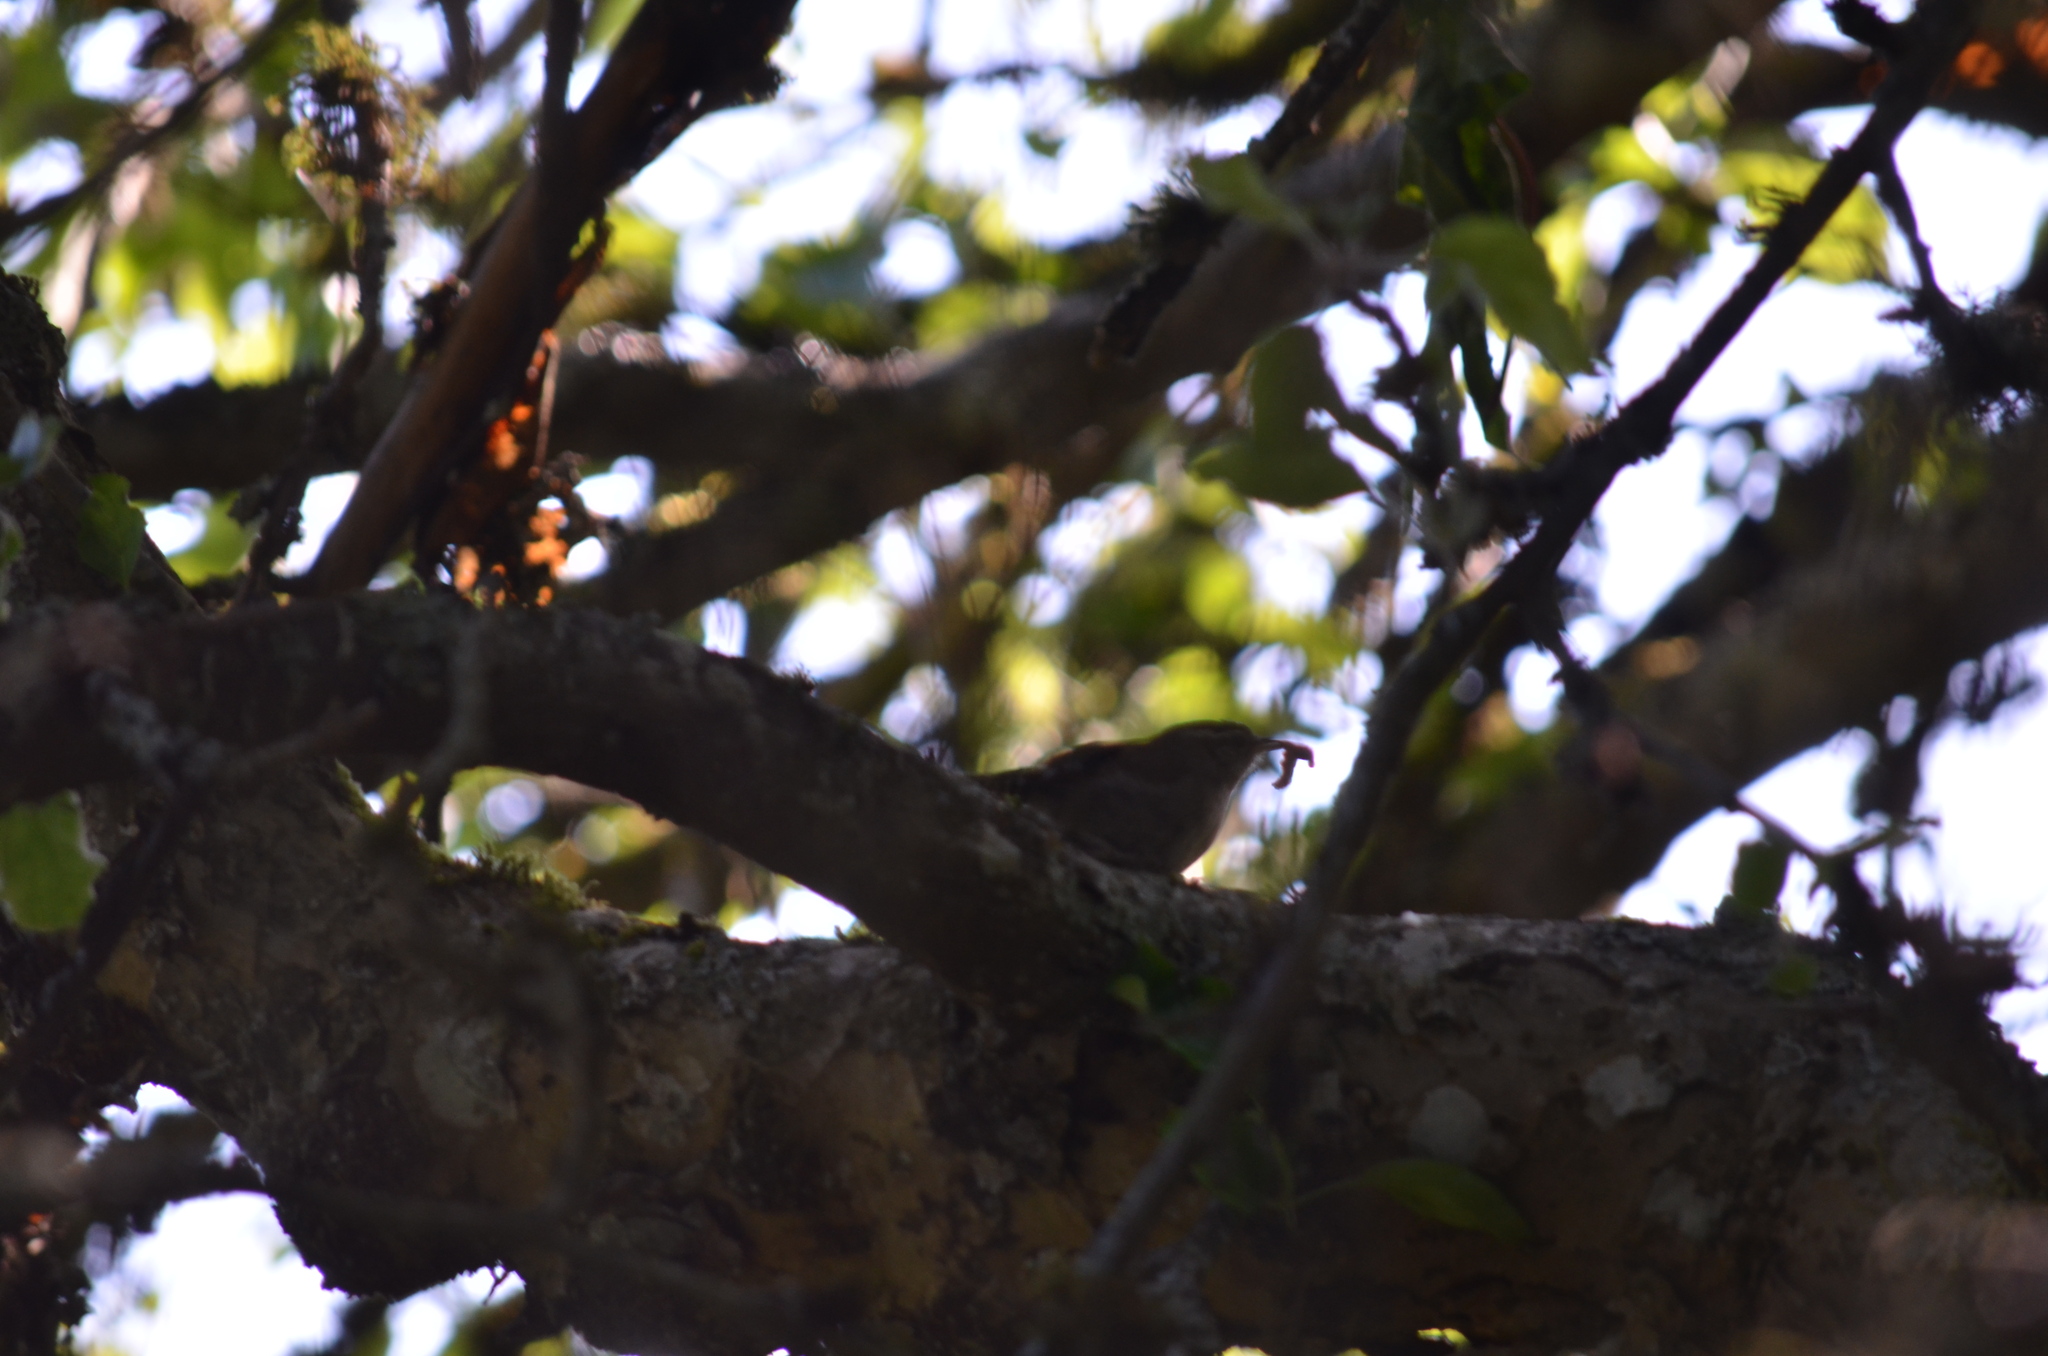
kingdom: Animalia
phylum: Chordata
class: Aves
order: Passeriformes
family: Troglodytidae
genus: Thryomanes
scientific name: Thryomanes bewickii
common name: Bewick's wren
